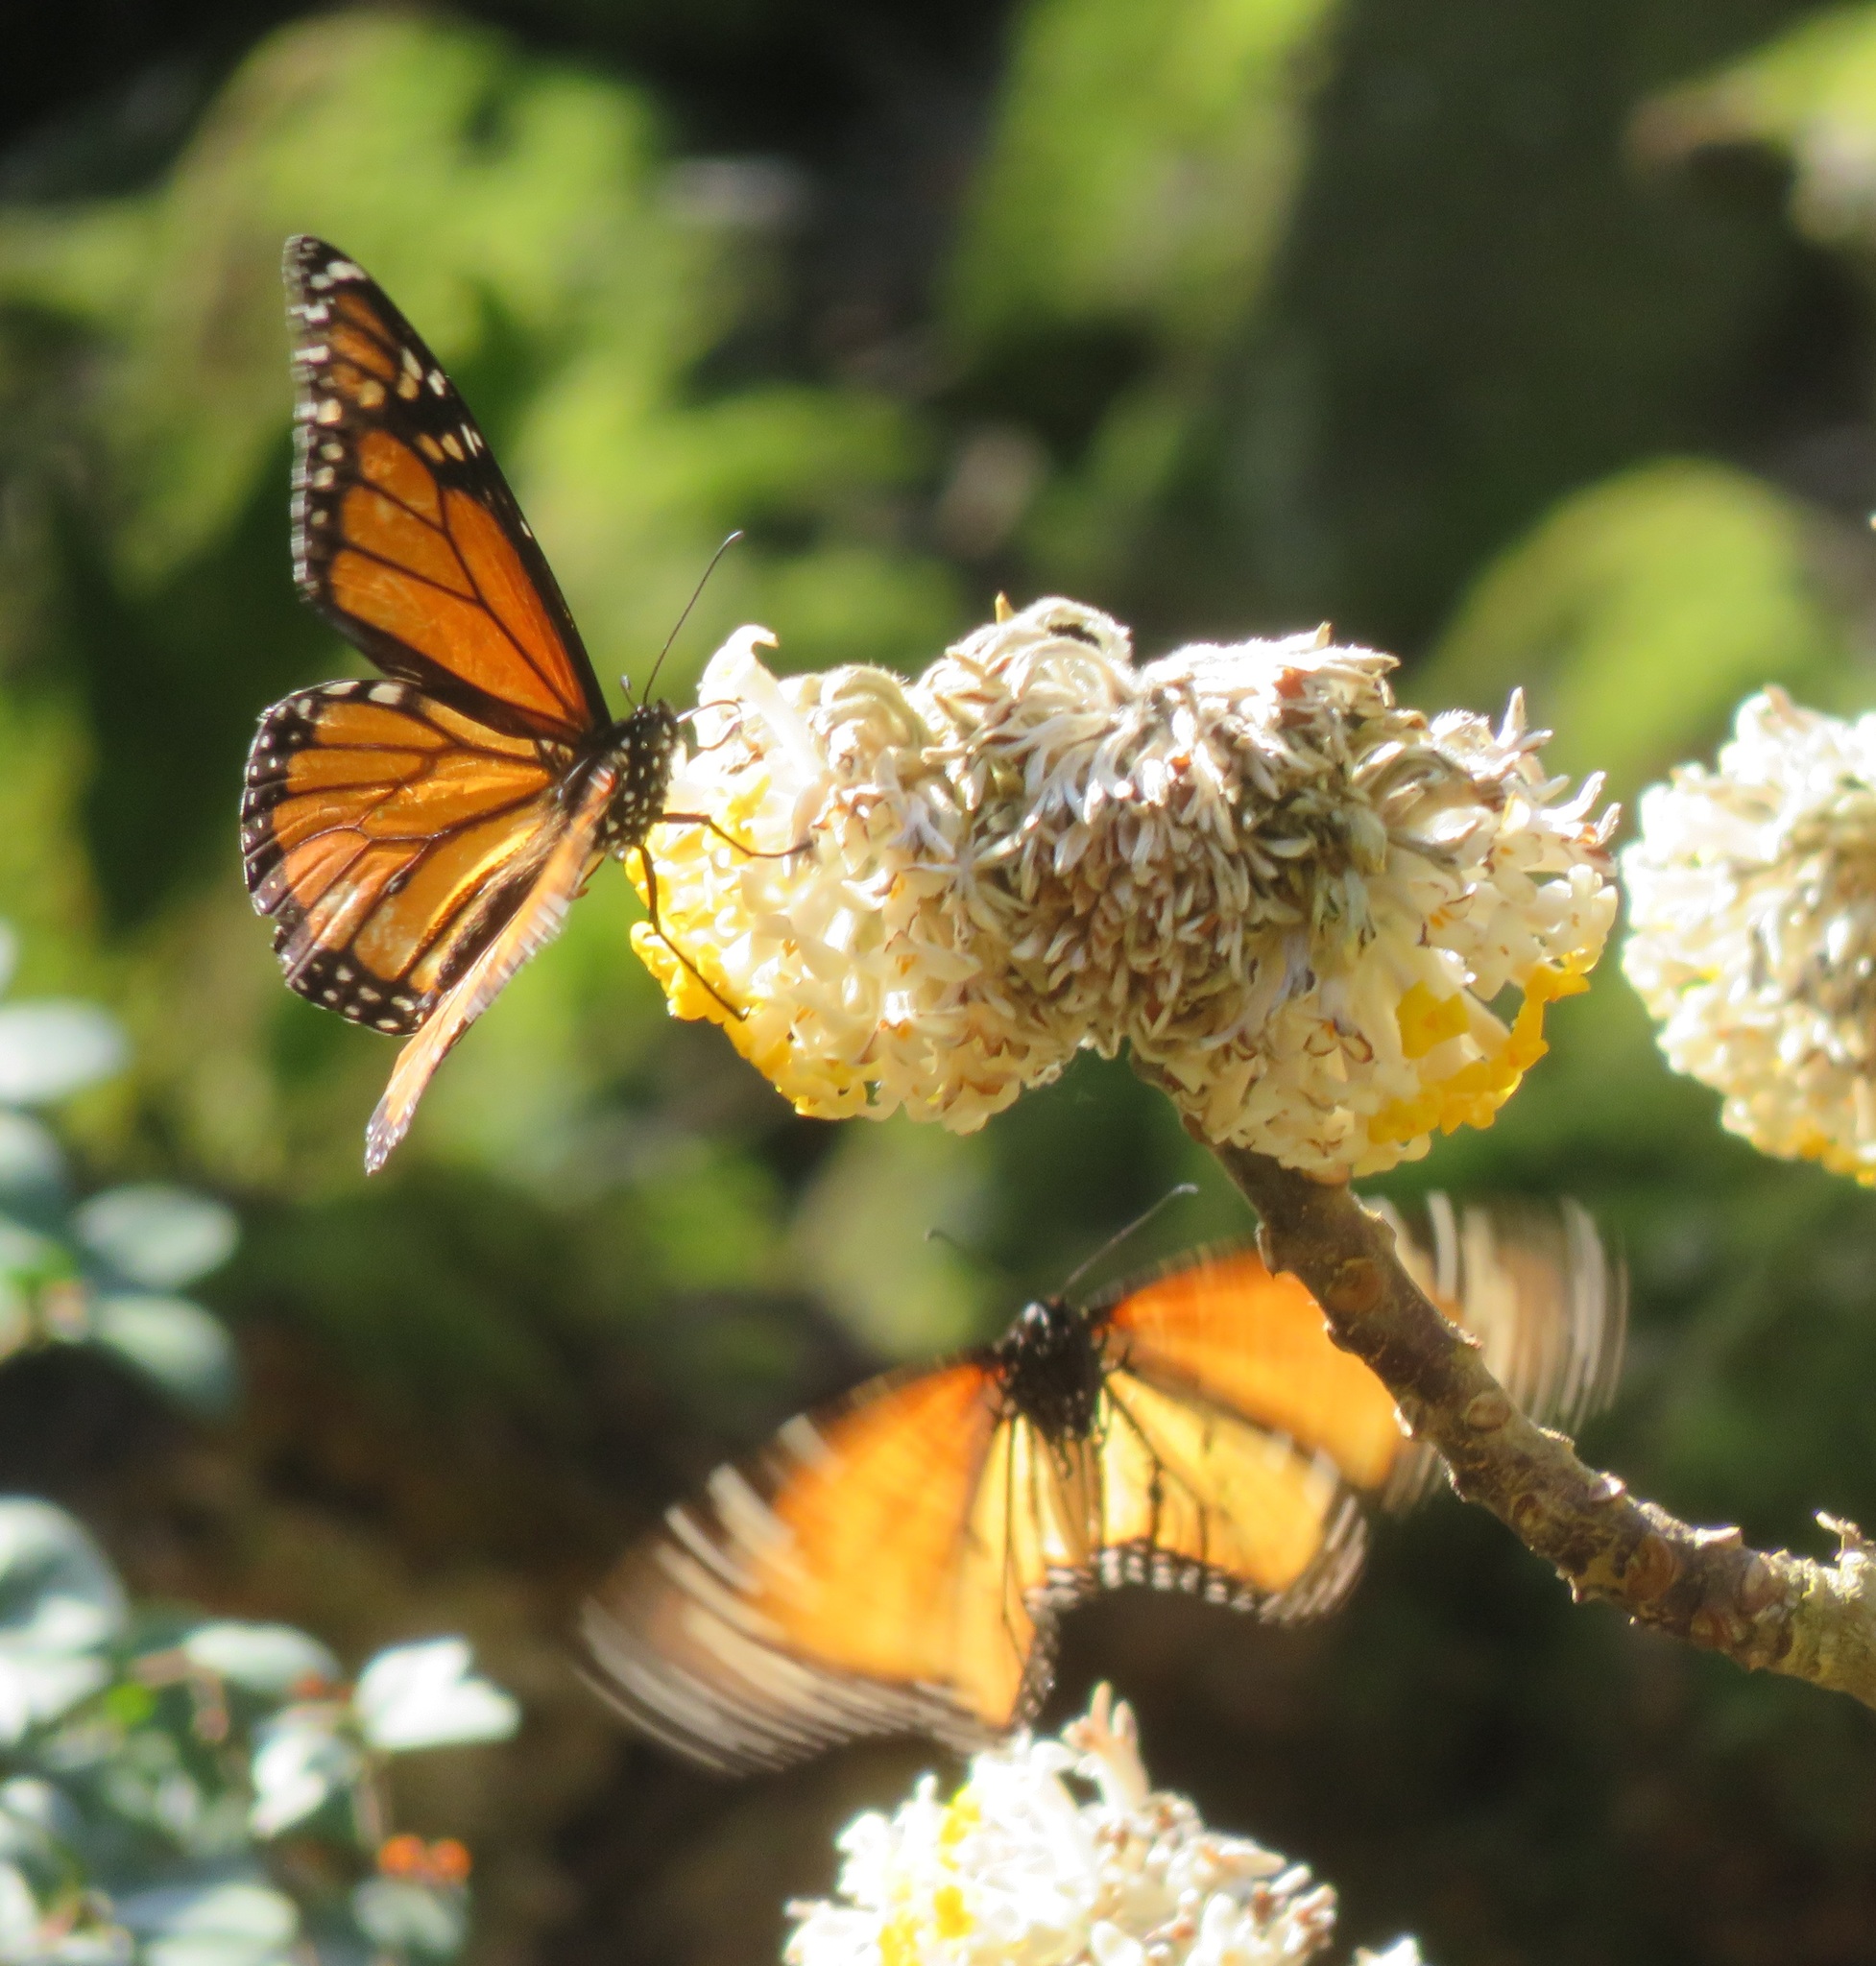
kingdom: Animalia
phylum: Arthropoda
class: Insecta
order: Lepidoptera
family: Nymphalidae
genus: Danaus
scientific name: Danaus plexippus
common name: Monarch
